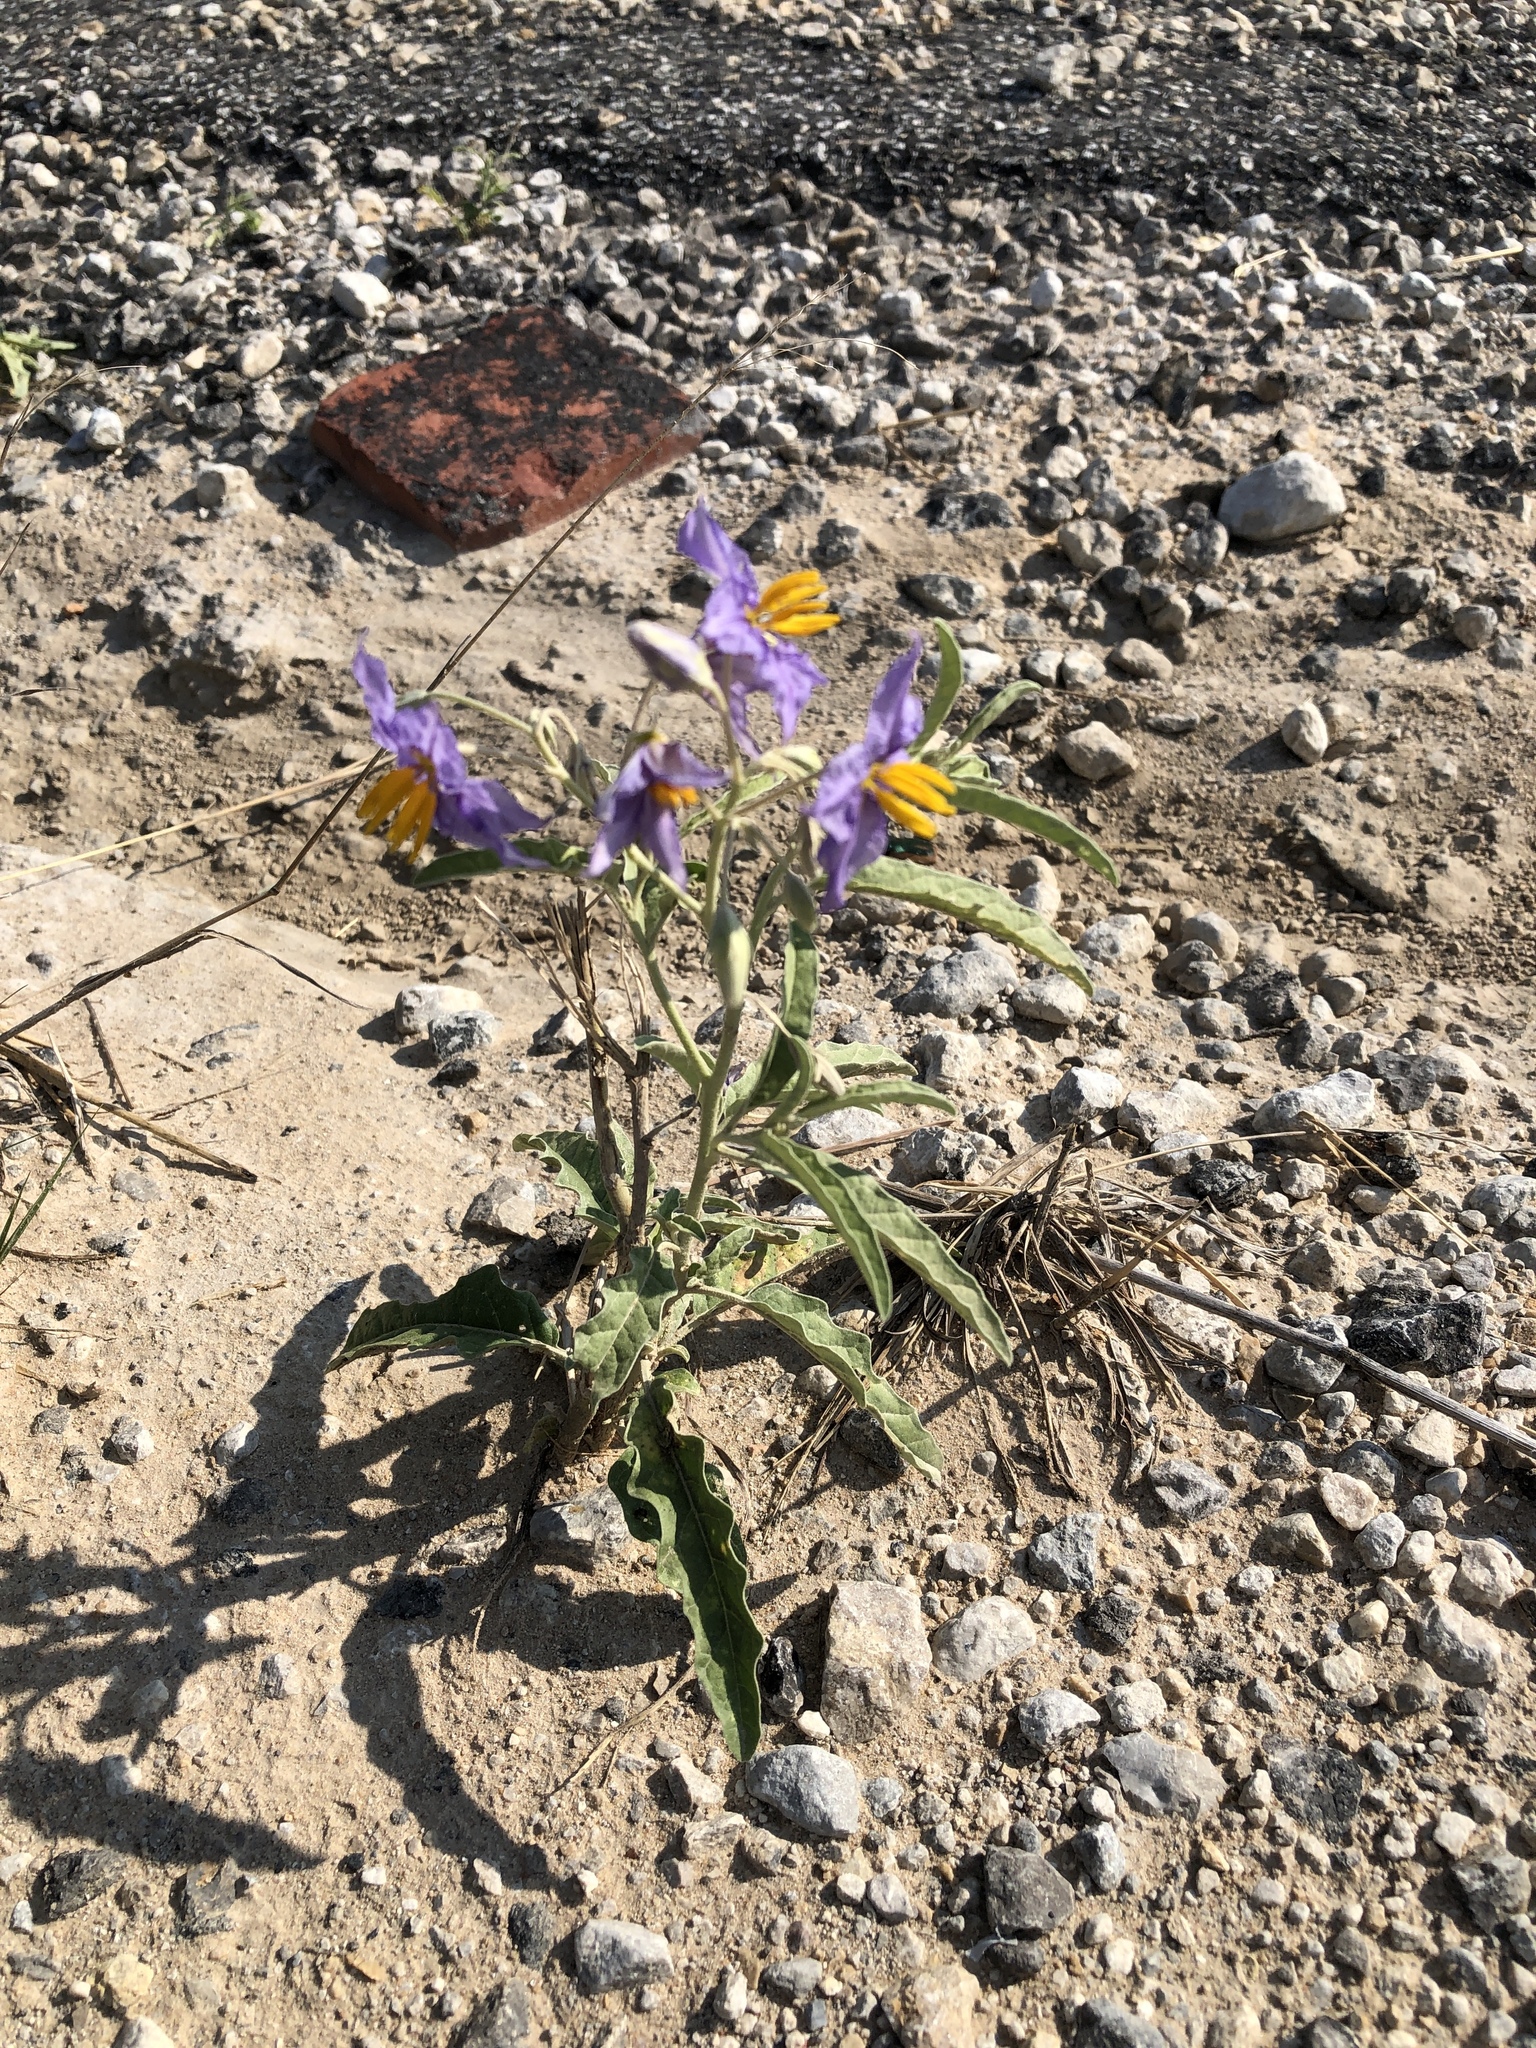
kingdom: Plantae
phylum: Tracheophyta
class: Magnoliopsida
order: Solanales
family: Solanaceae
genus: Solanum
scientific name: Solanum elaeagnifolium
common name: Silverleaf nightshade
